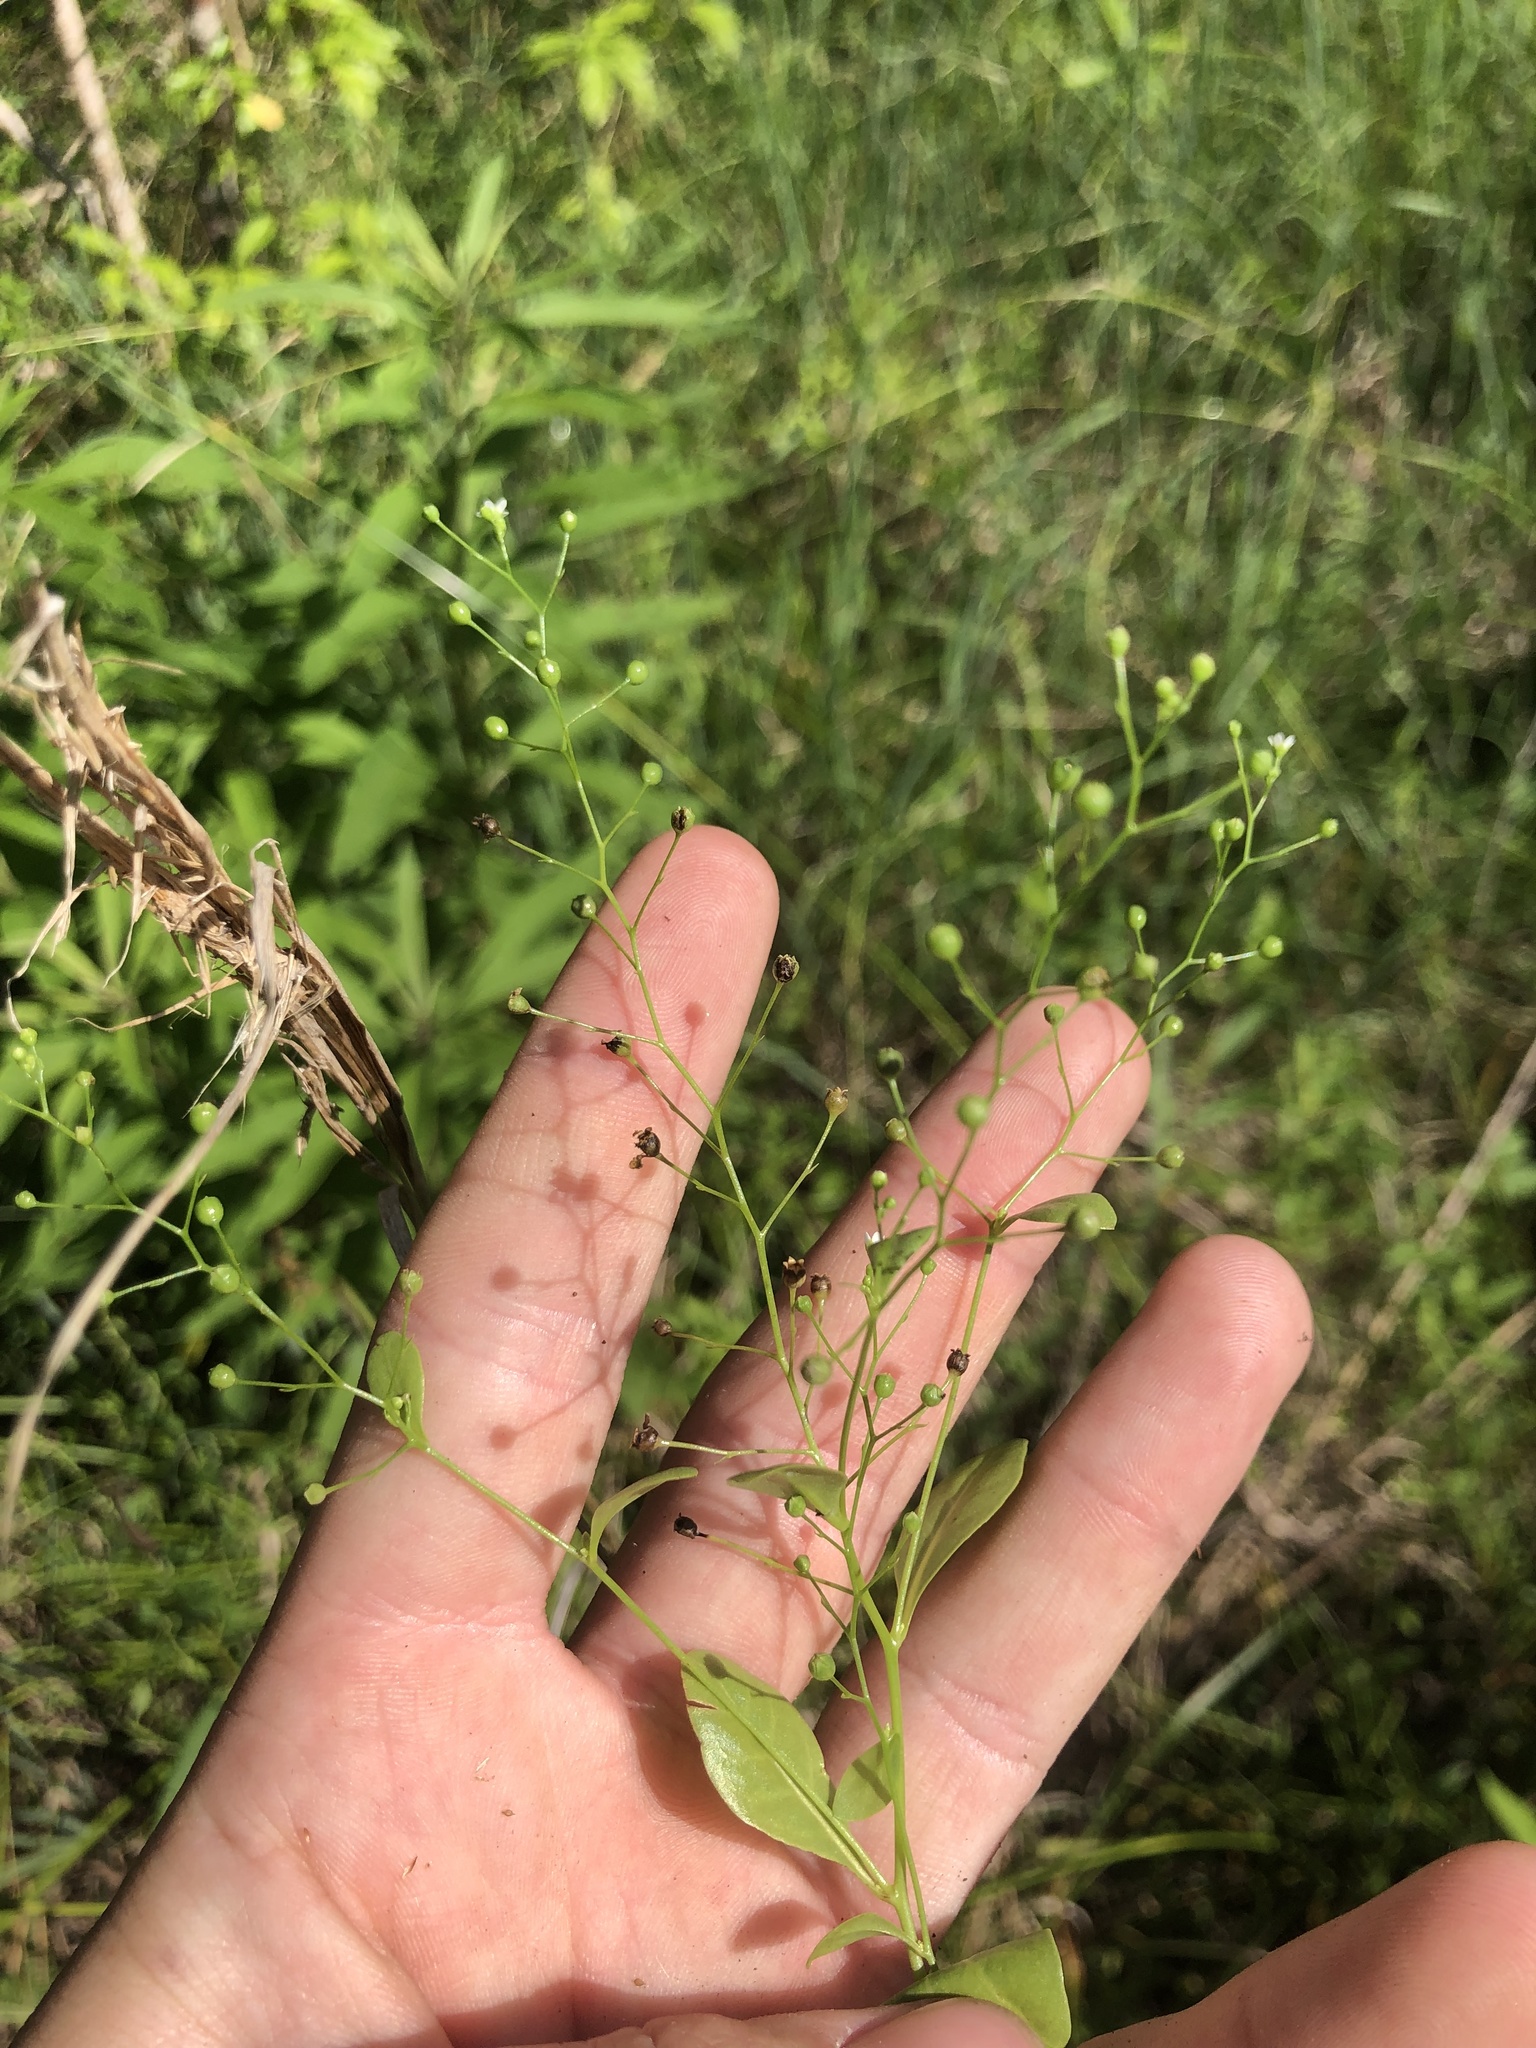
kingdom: Plantae
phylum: Tracheophyta
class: Magnoliopsida
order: Ericales
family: Primulaceae
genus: Samolus
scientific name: Samolus parviflorus
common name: False water pimpernel
